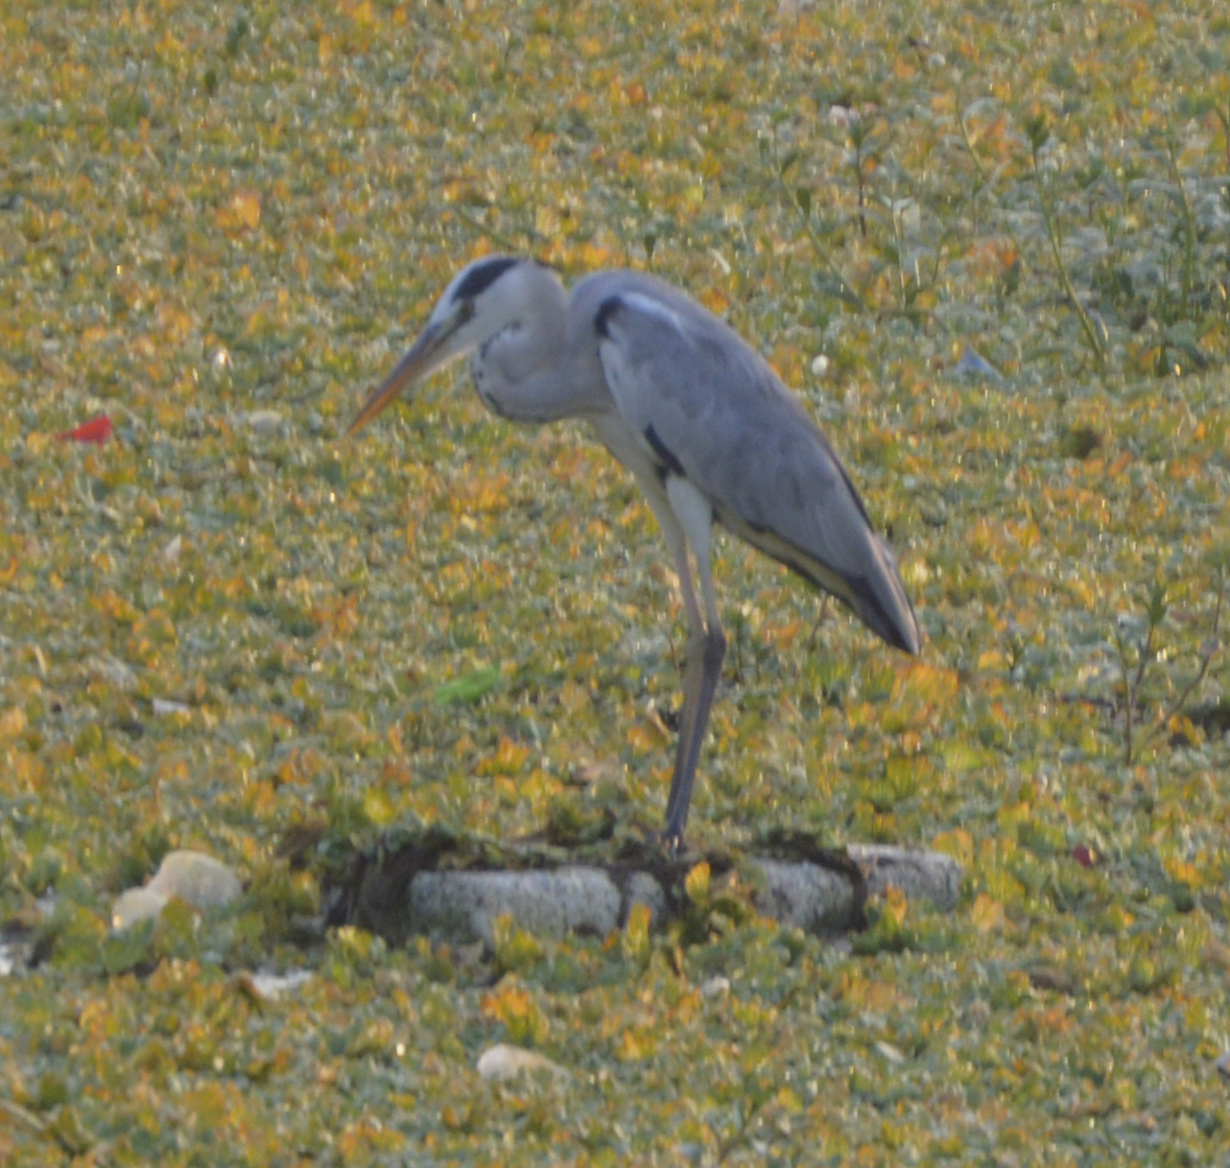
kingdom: Animalia
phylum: Chordata
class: Aves
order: Pelecaniformes
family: Ardeidae
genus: Ardea
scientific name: Ardea cinerea
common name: Grey heron
